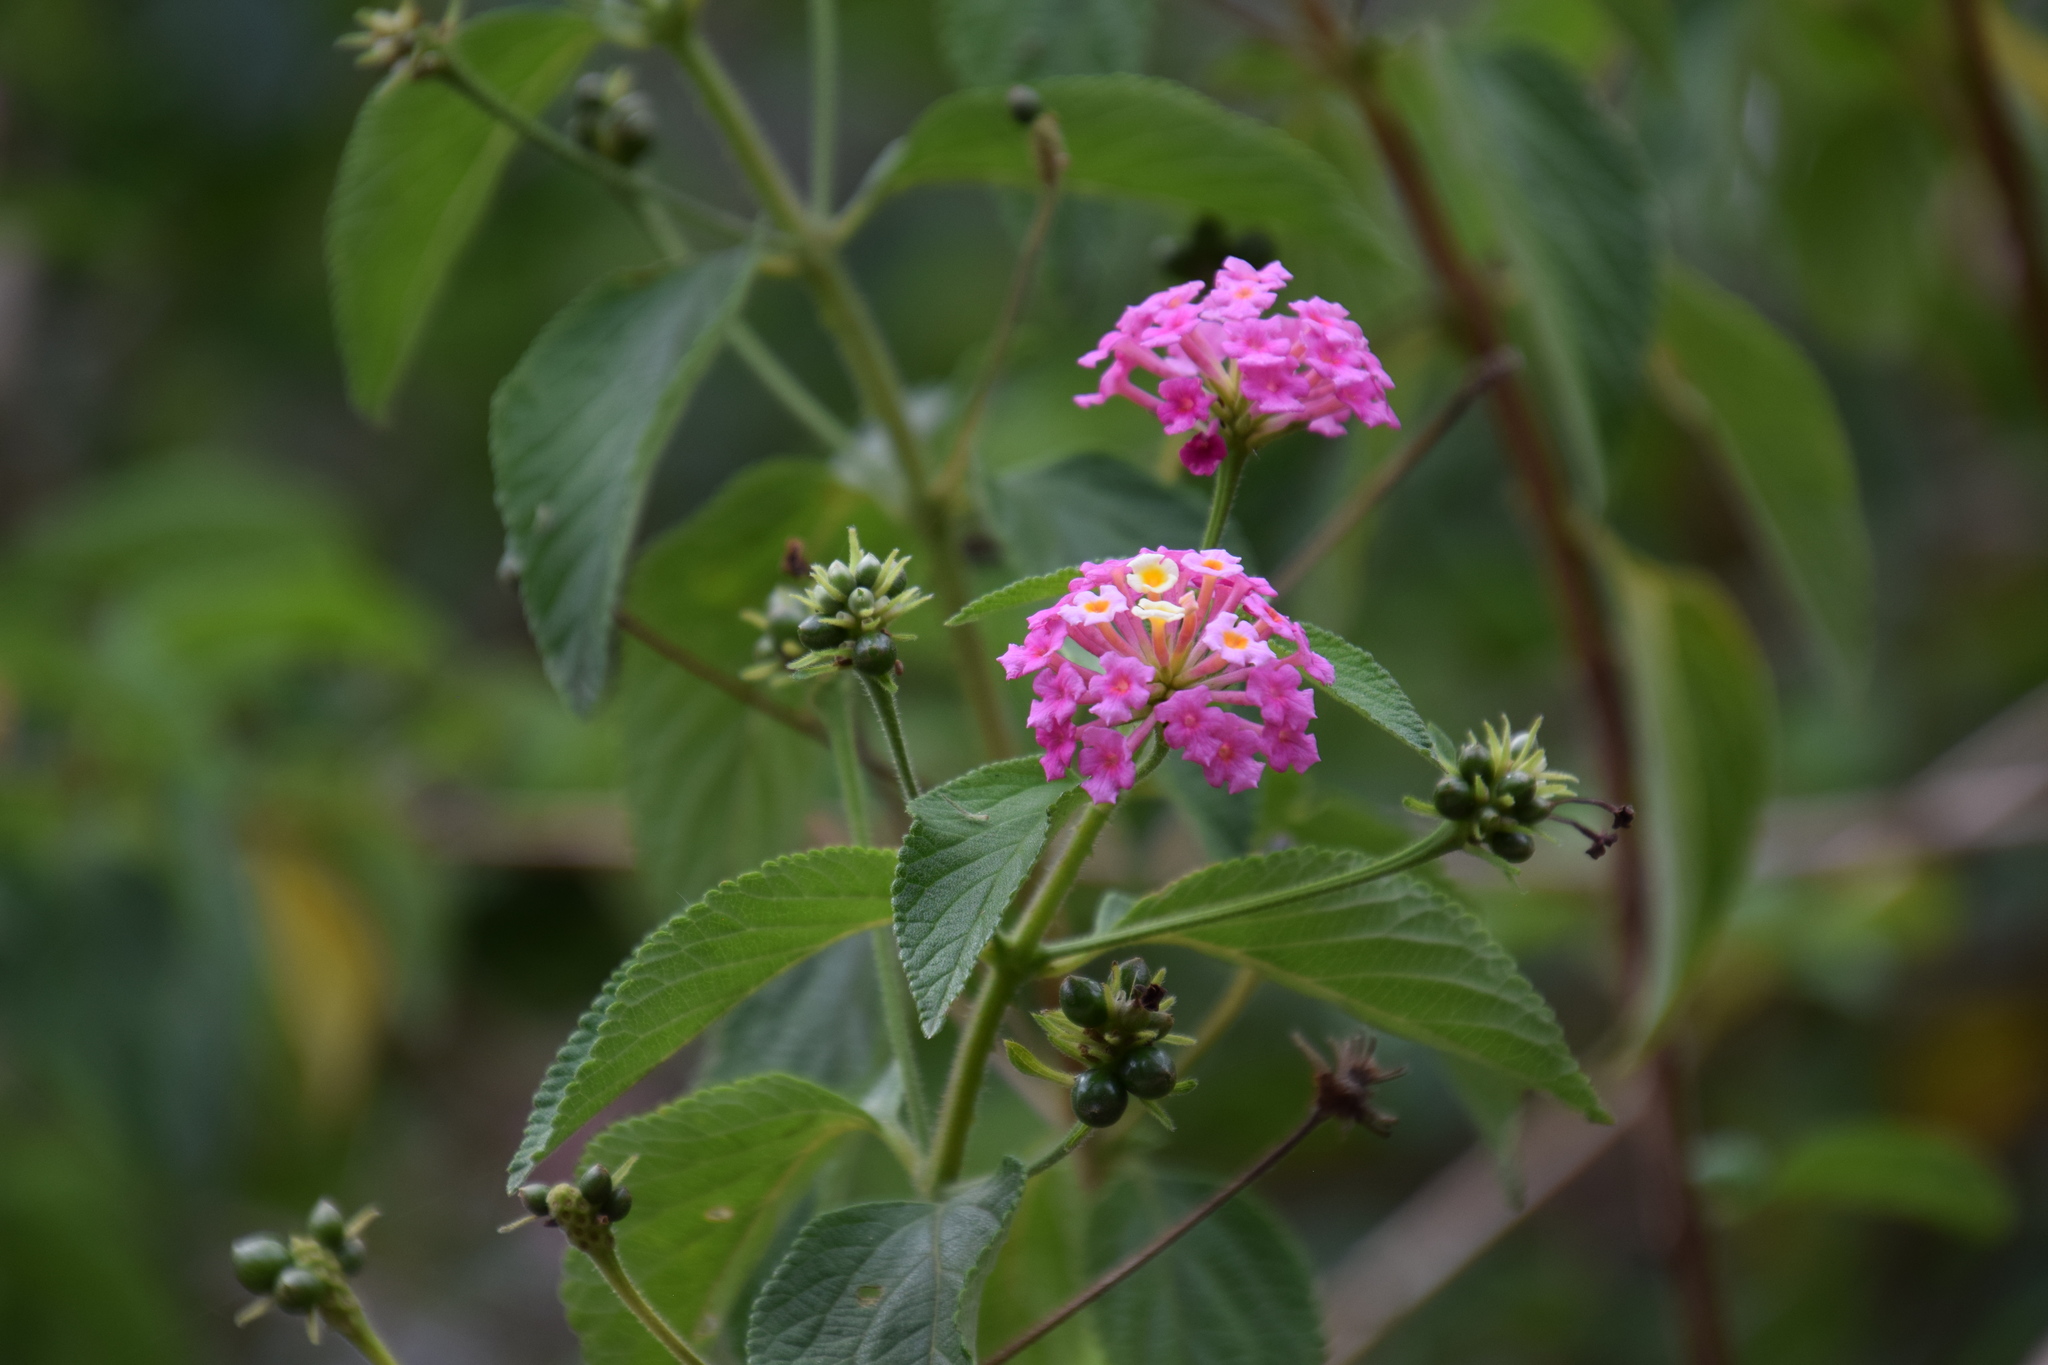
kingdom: Plantae
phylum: Tracheophyta
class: Magnoliopsida
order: Lamiales
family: Verbenaceae
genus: Lantana
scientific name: Lantana camara
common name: Lantana
